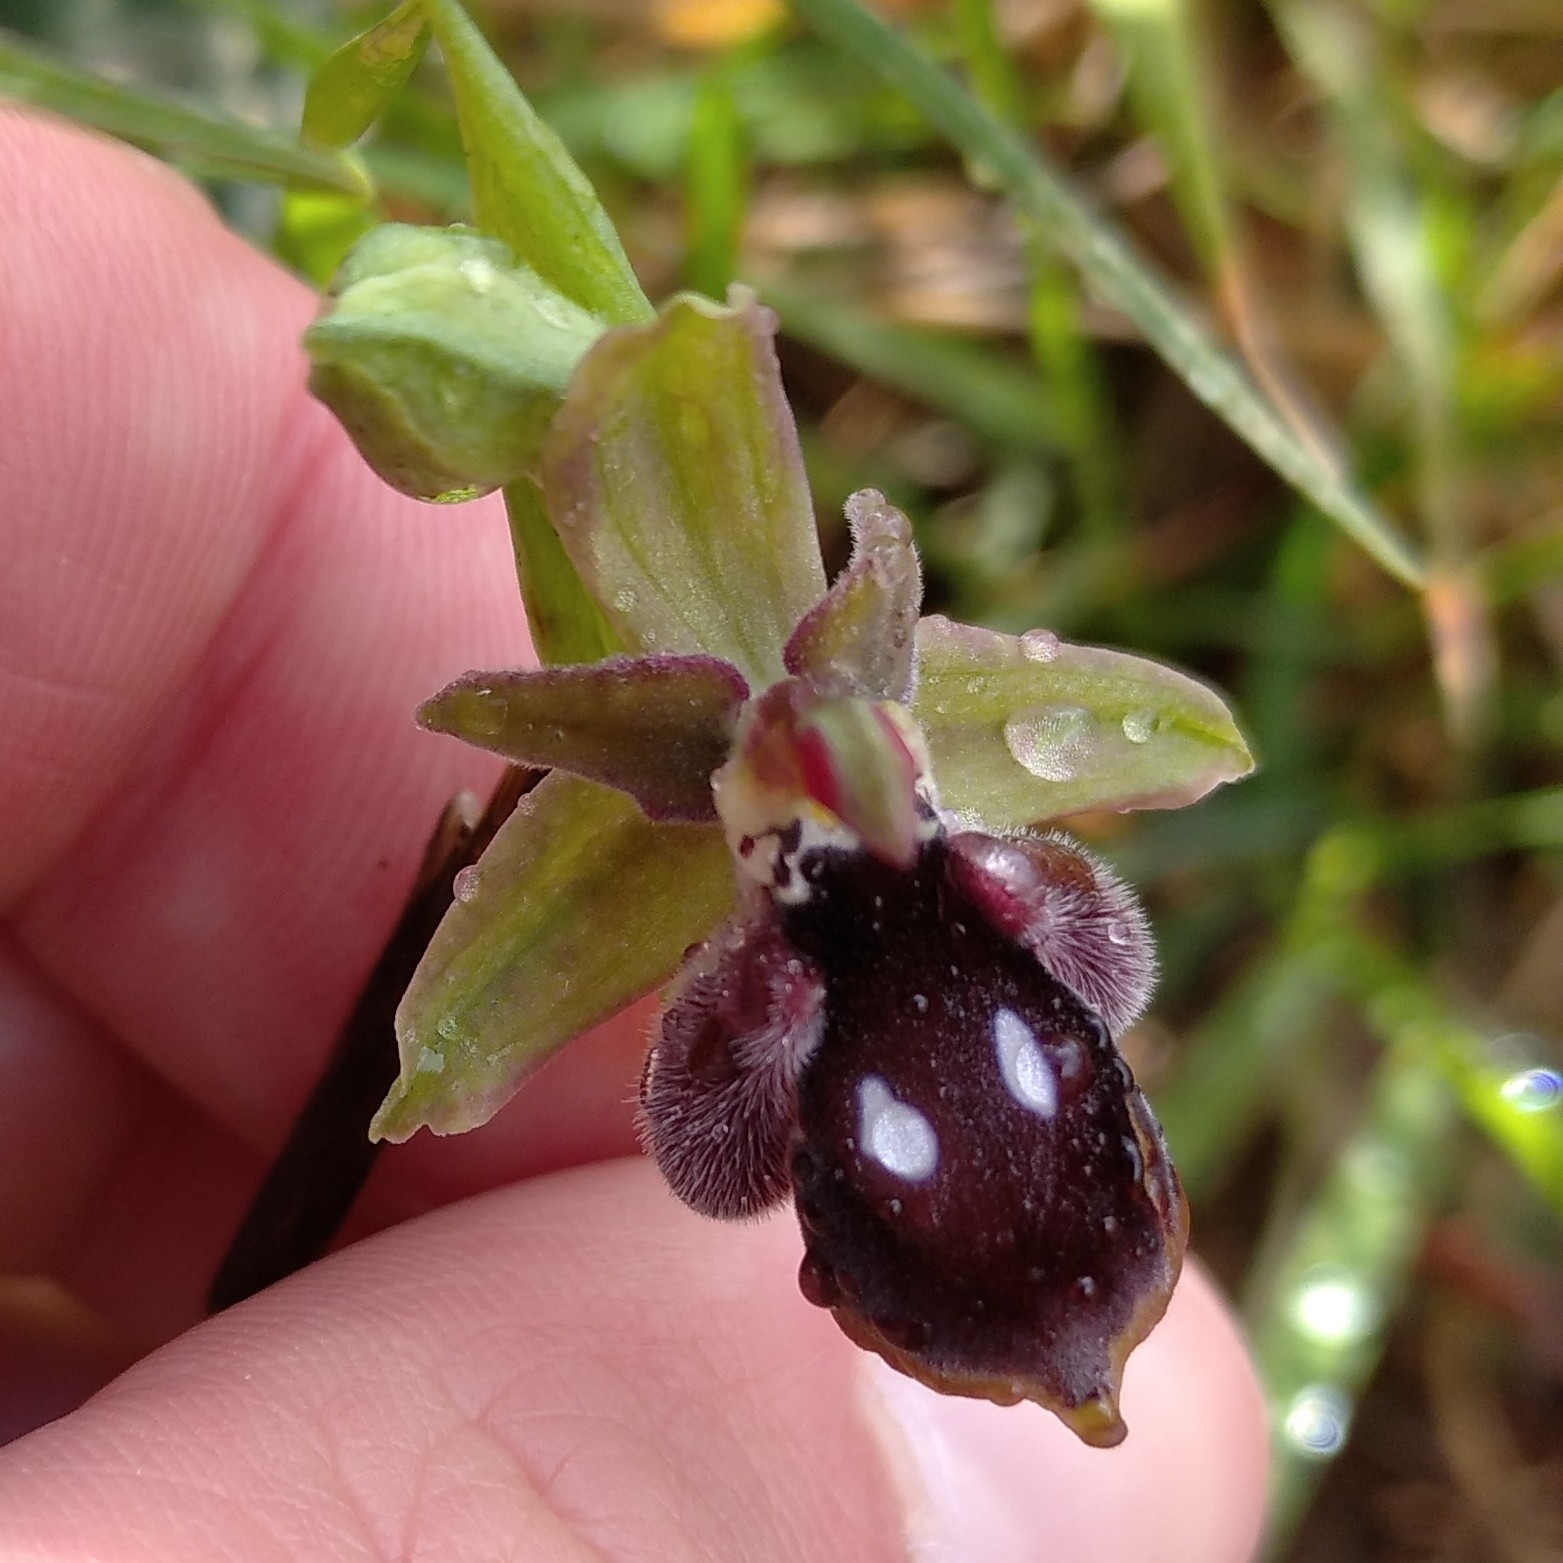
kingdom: Plantae
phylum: Tracheophyta
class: Liliopsida
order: Asparagales
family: Orchidaceae
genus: Ophrys
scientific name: Ophrys reinholdii
